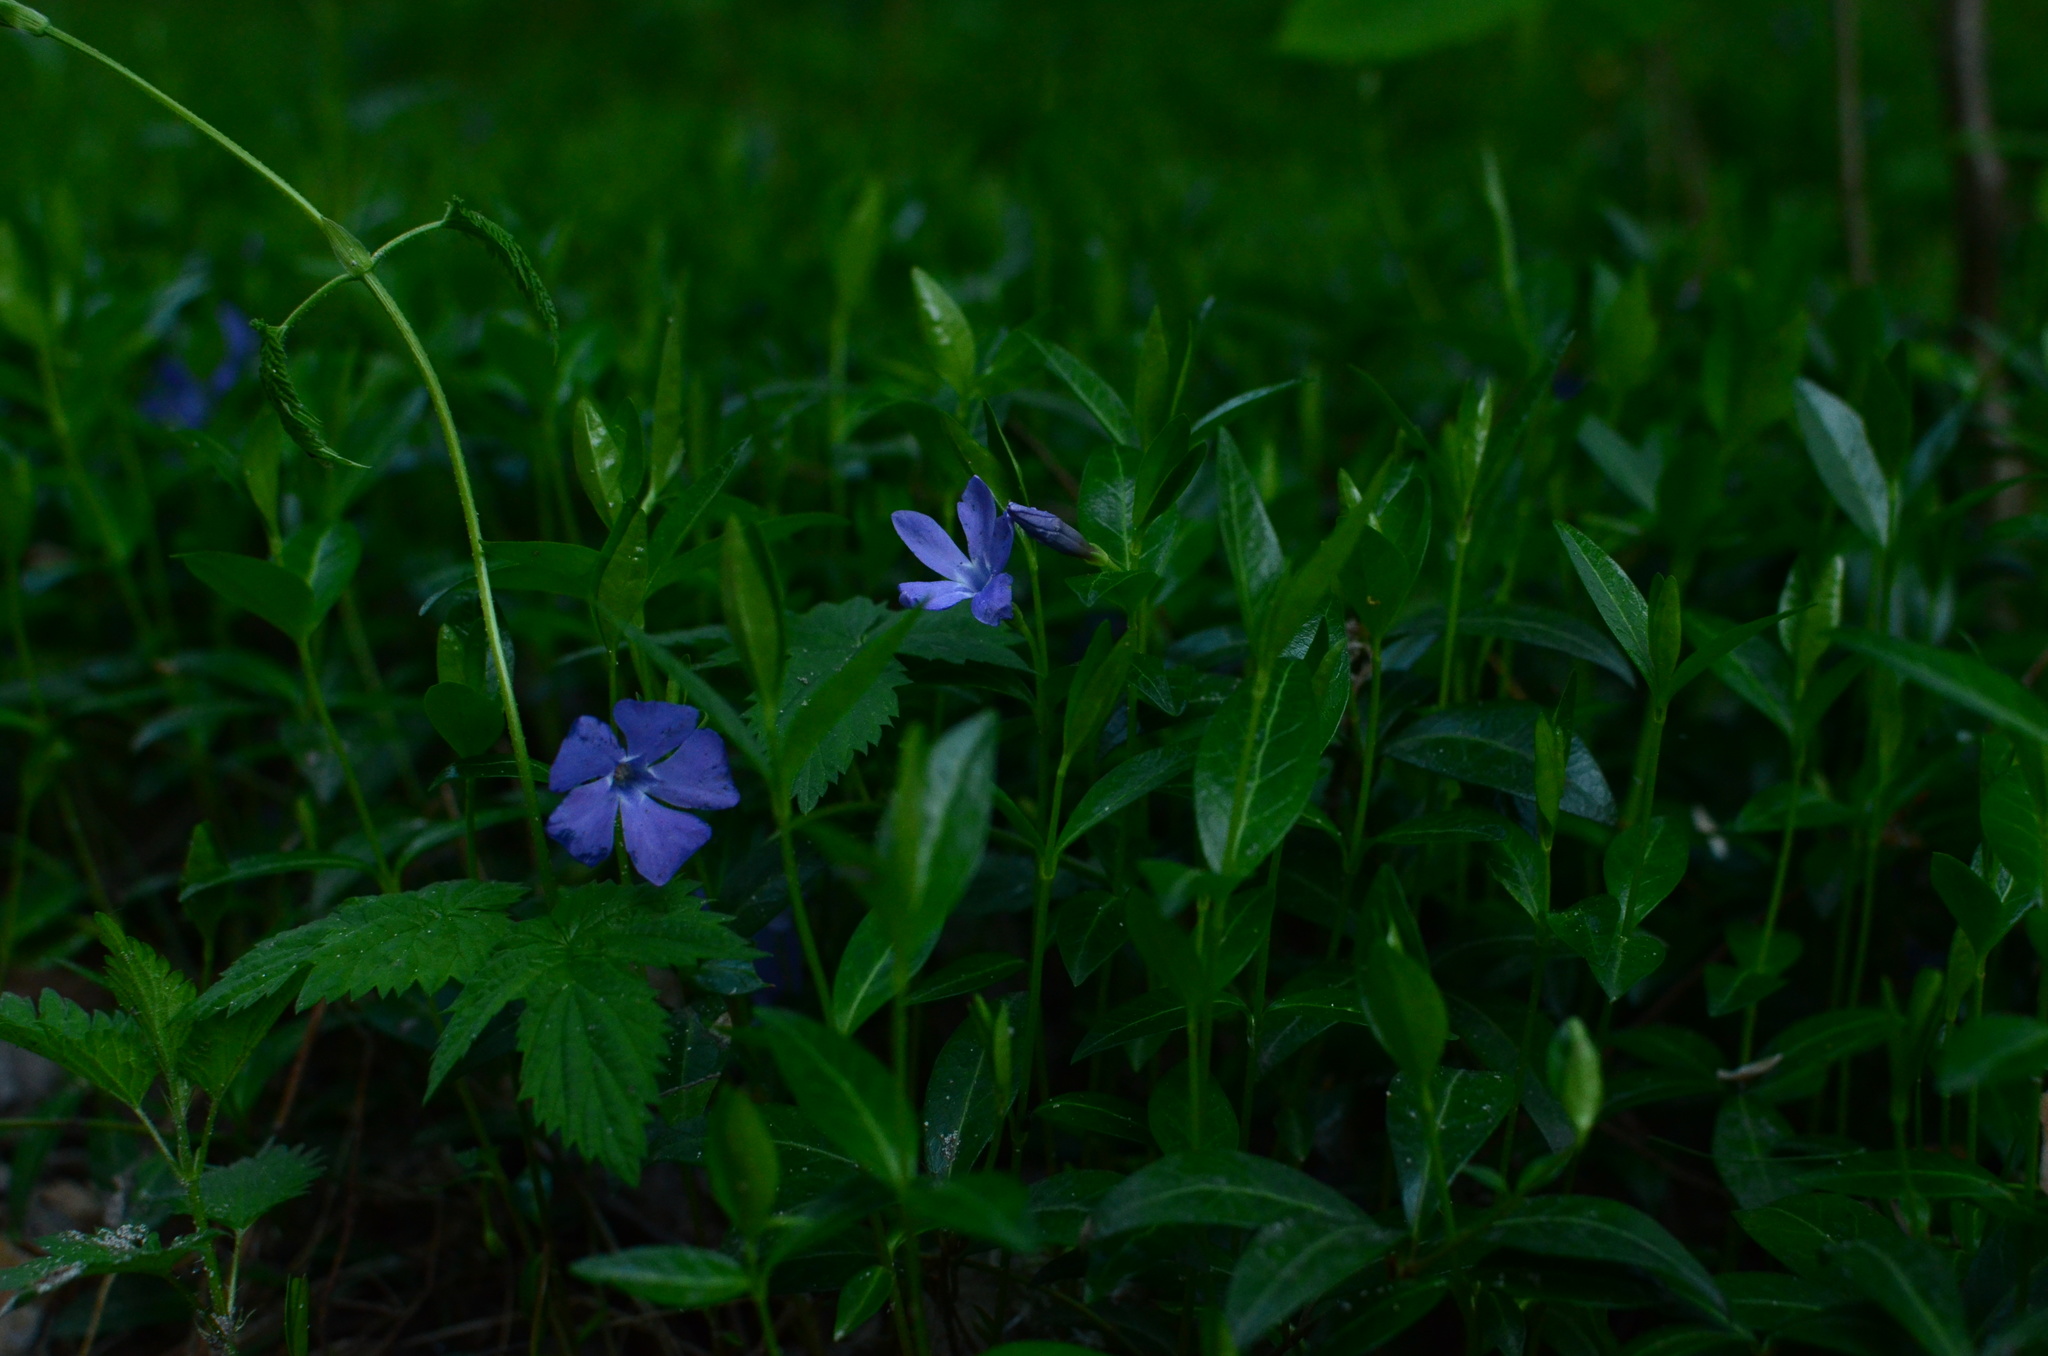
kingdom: Plantae
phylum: Tracheophyta
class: Magnoliopsida
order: Gentianales
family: Apocynaceae
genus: Vinca
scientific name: Vinca minor
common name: Lesser periwinkle
